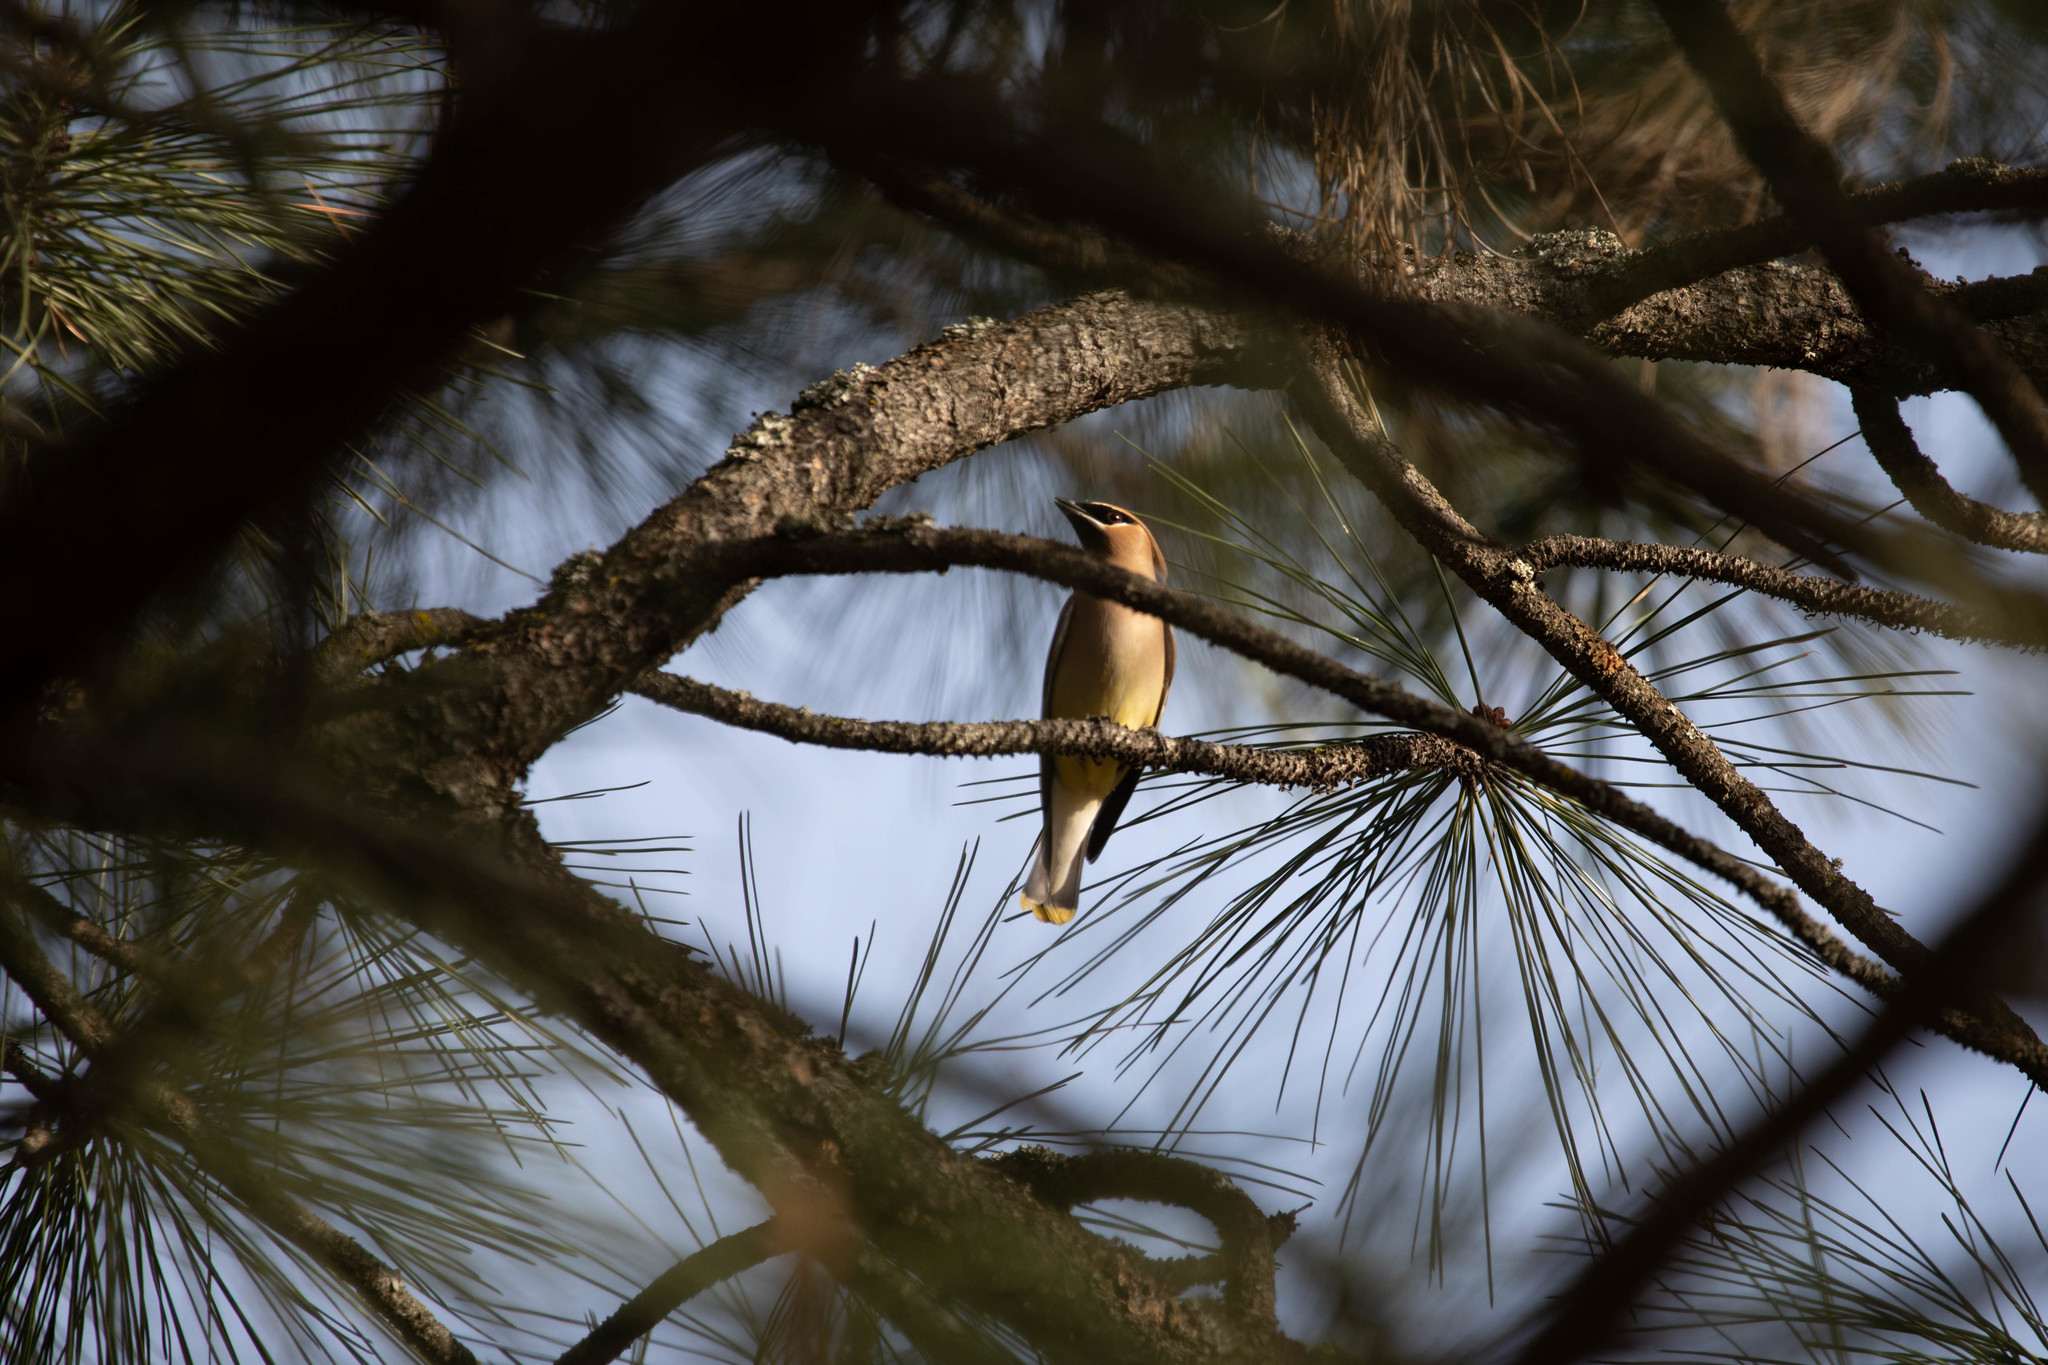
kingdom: Animalia
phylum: Chordata
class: Aves
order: Passeriformes
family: Bombycillidae
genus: Bombycilla
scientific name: Bombycilla cedrorum
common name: Cedar waxwing
